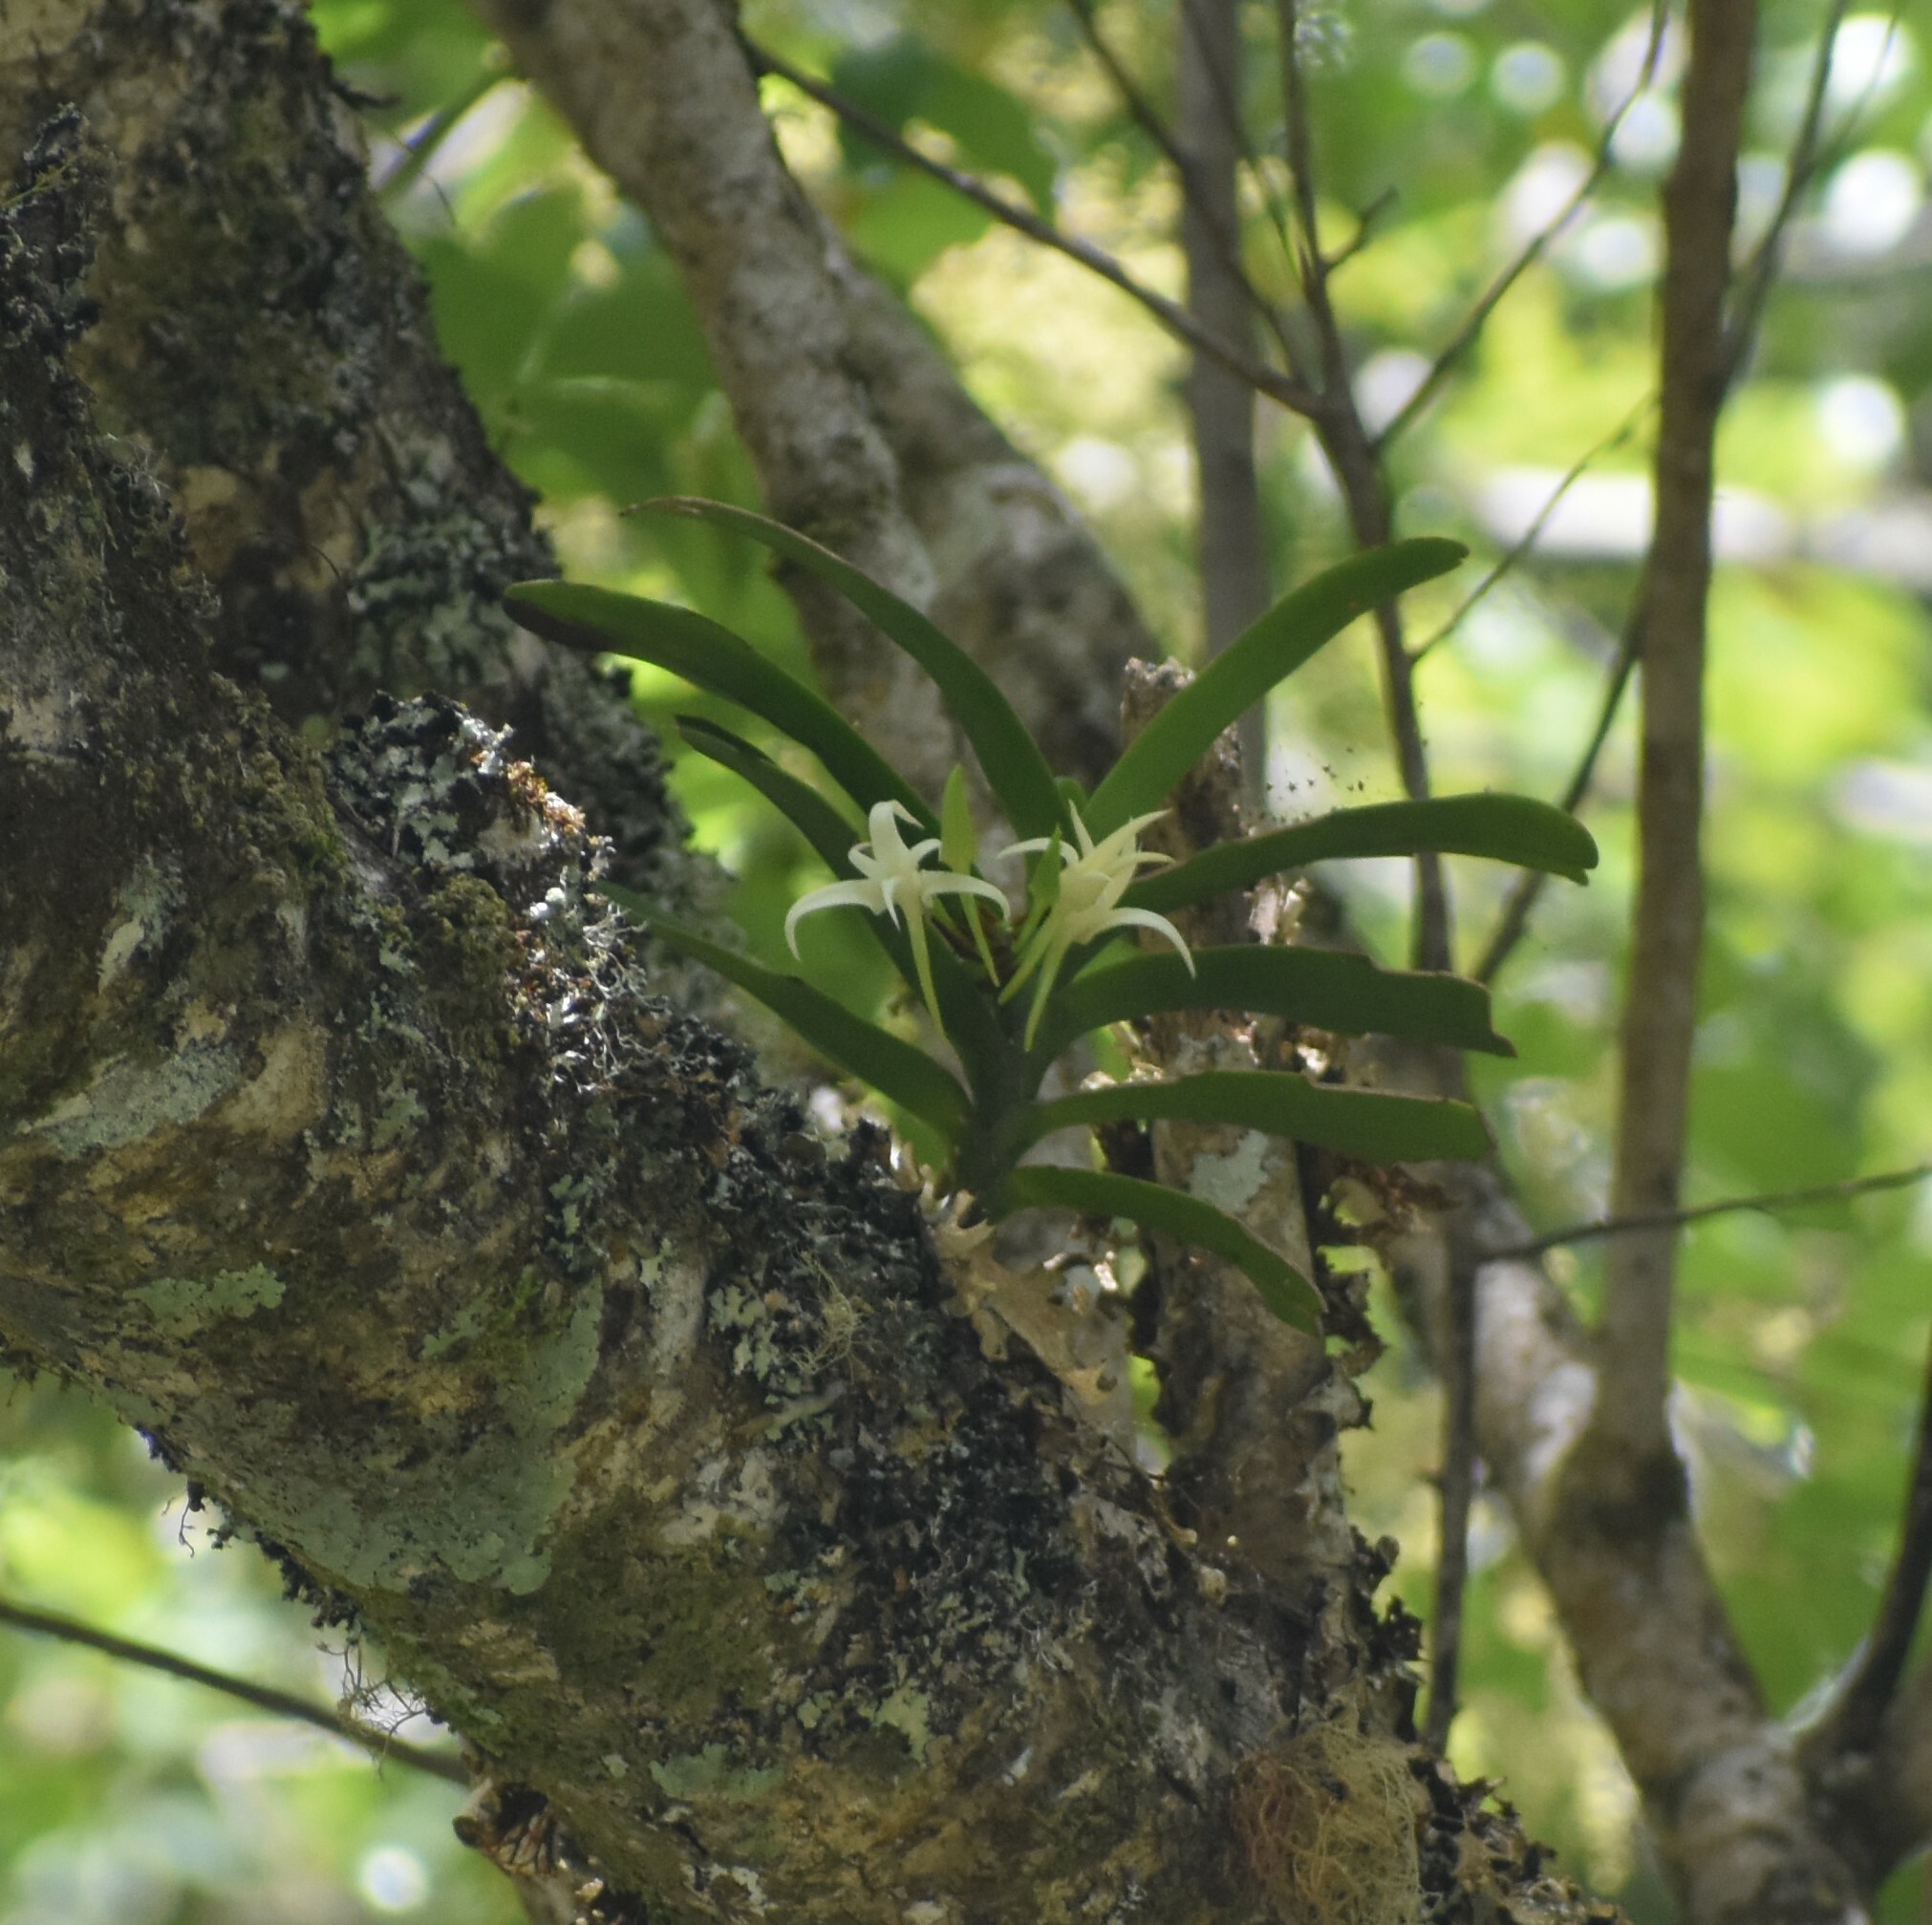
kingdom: Plantae
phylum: Tracheophyta
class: Liliopsida
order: Asparagales
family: Orchidaceae
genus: Cyrtorchis
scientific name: Cyrtorchis arcuata
